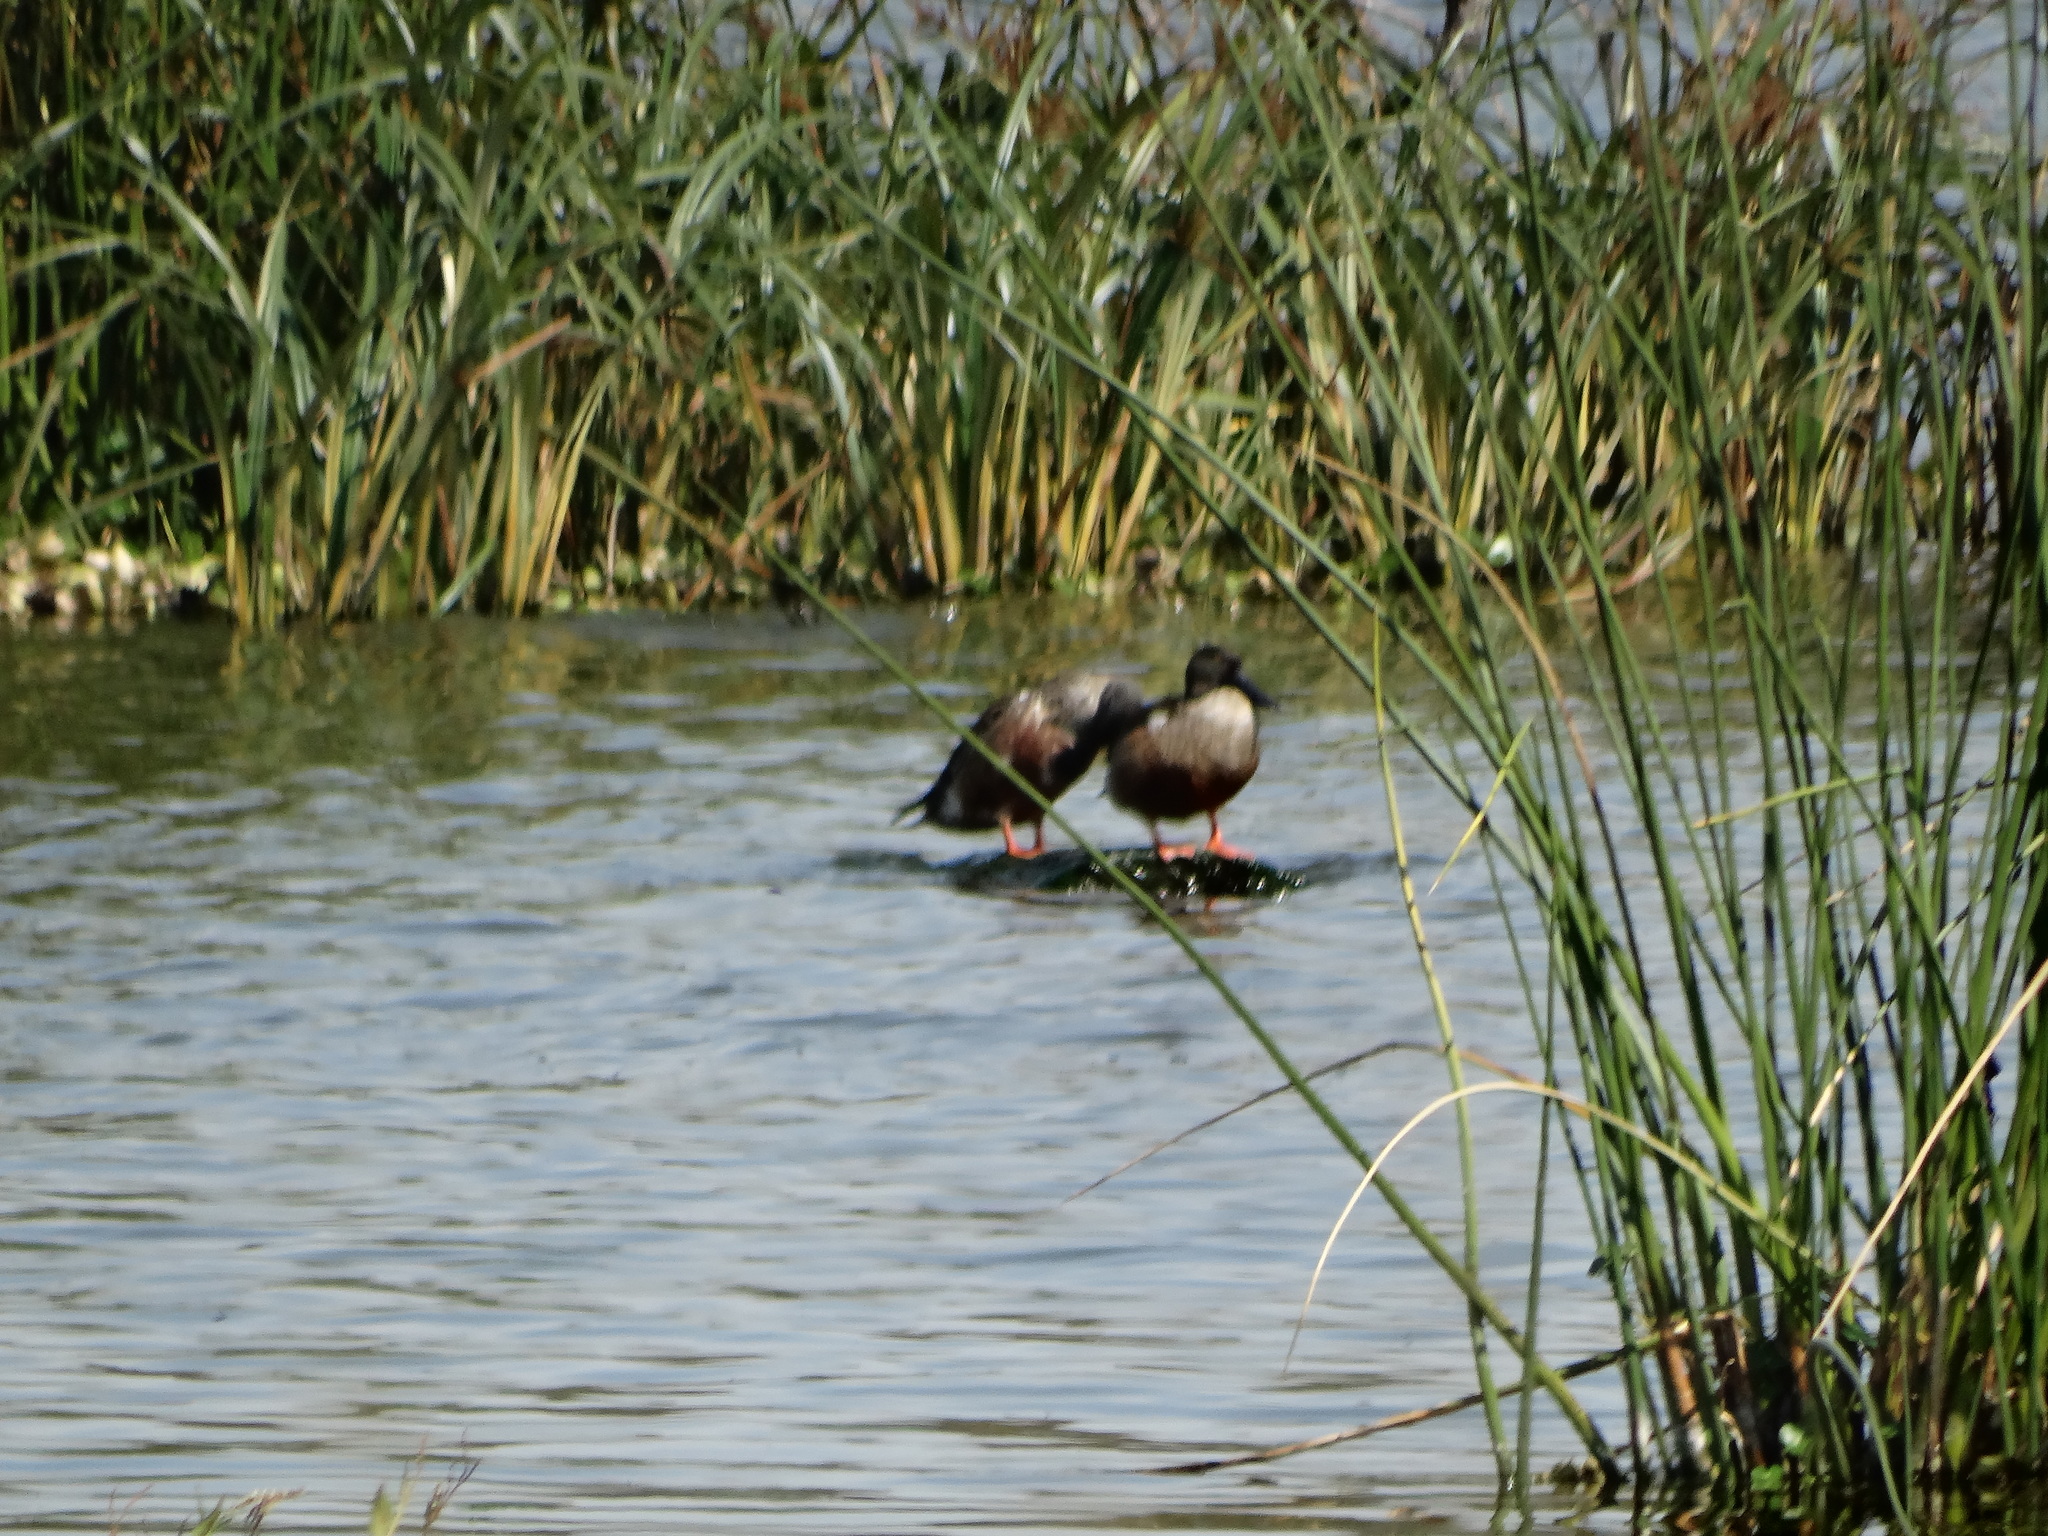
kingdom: Animalia
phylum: Chordata
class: Aves
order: Anseriformes
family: Anatidae
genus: Spatula
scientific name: Spatula clypeata
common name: Northern shoveler
